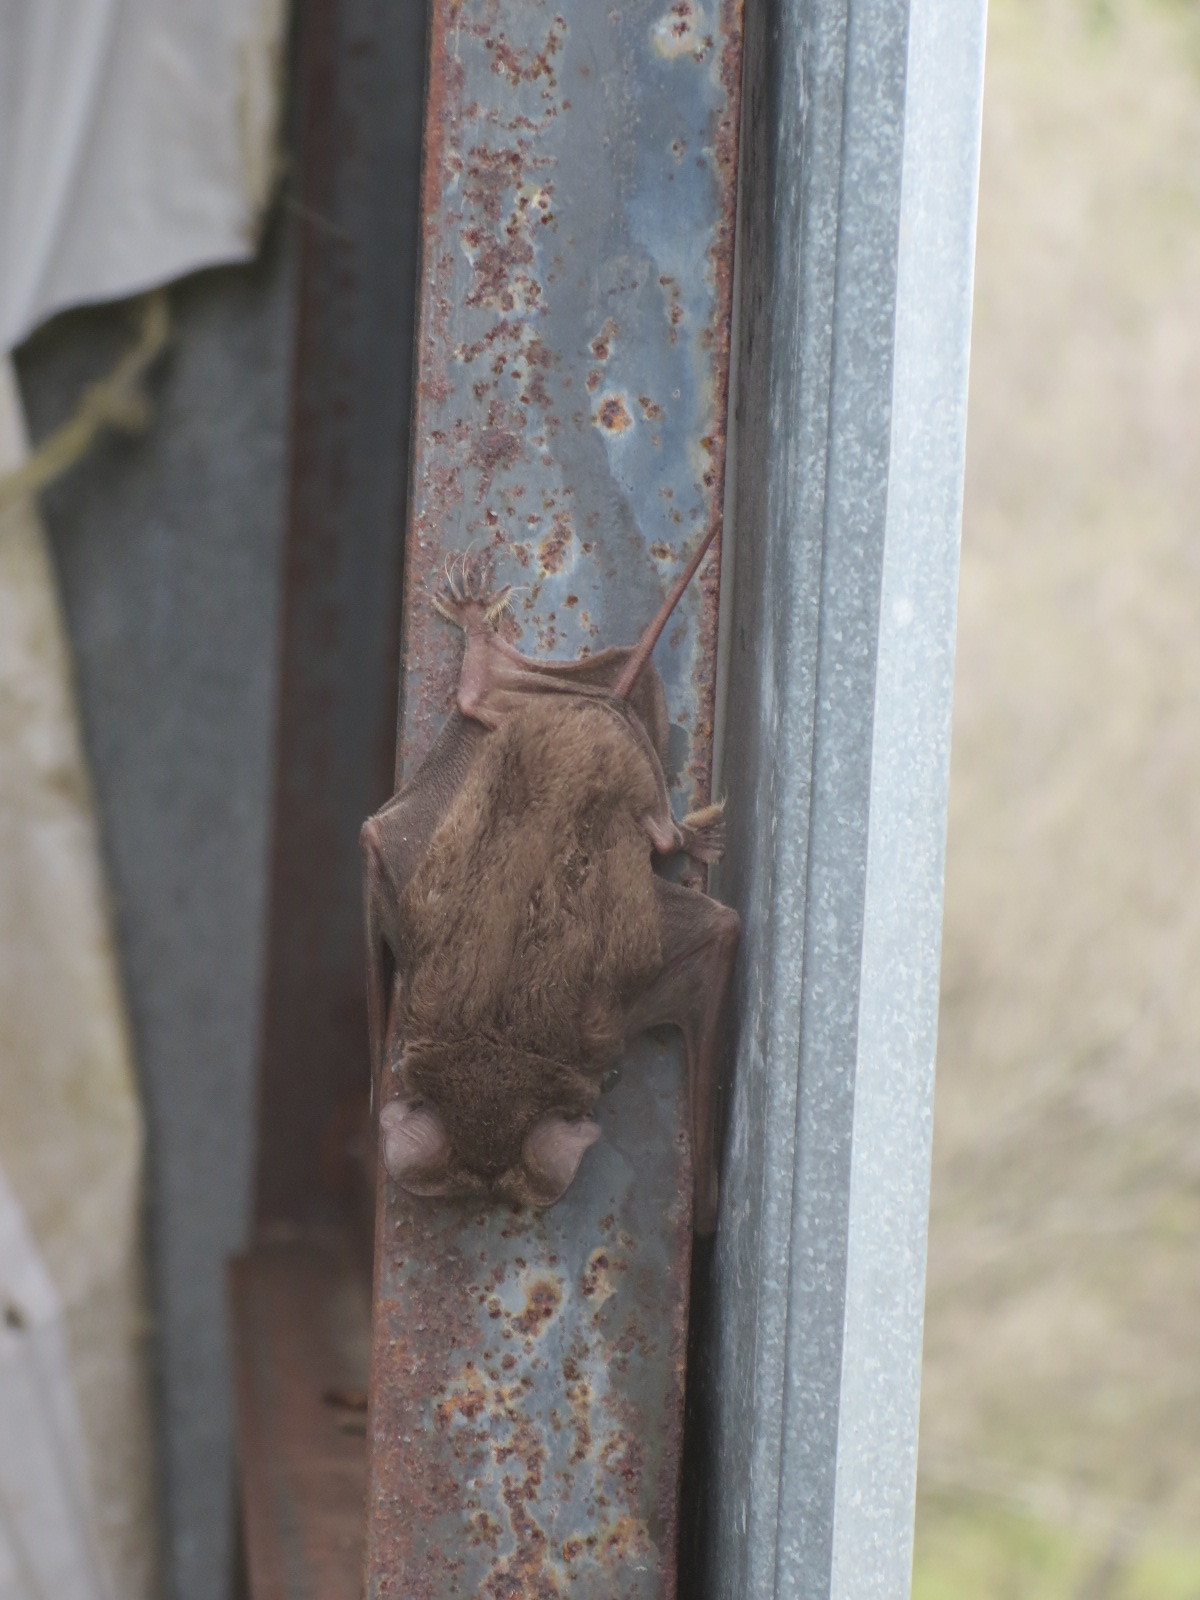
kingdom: Animalia
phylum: Chordata
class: Mammalia
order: Chiroptera
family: Molossidae
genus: Tadarida
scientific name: Tadarida brasiliensis
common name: Mexican free-tailed bat
